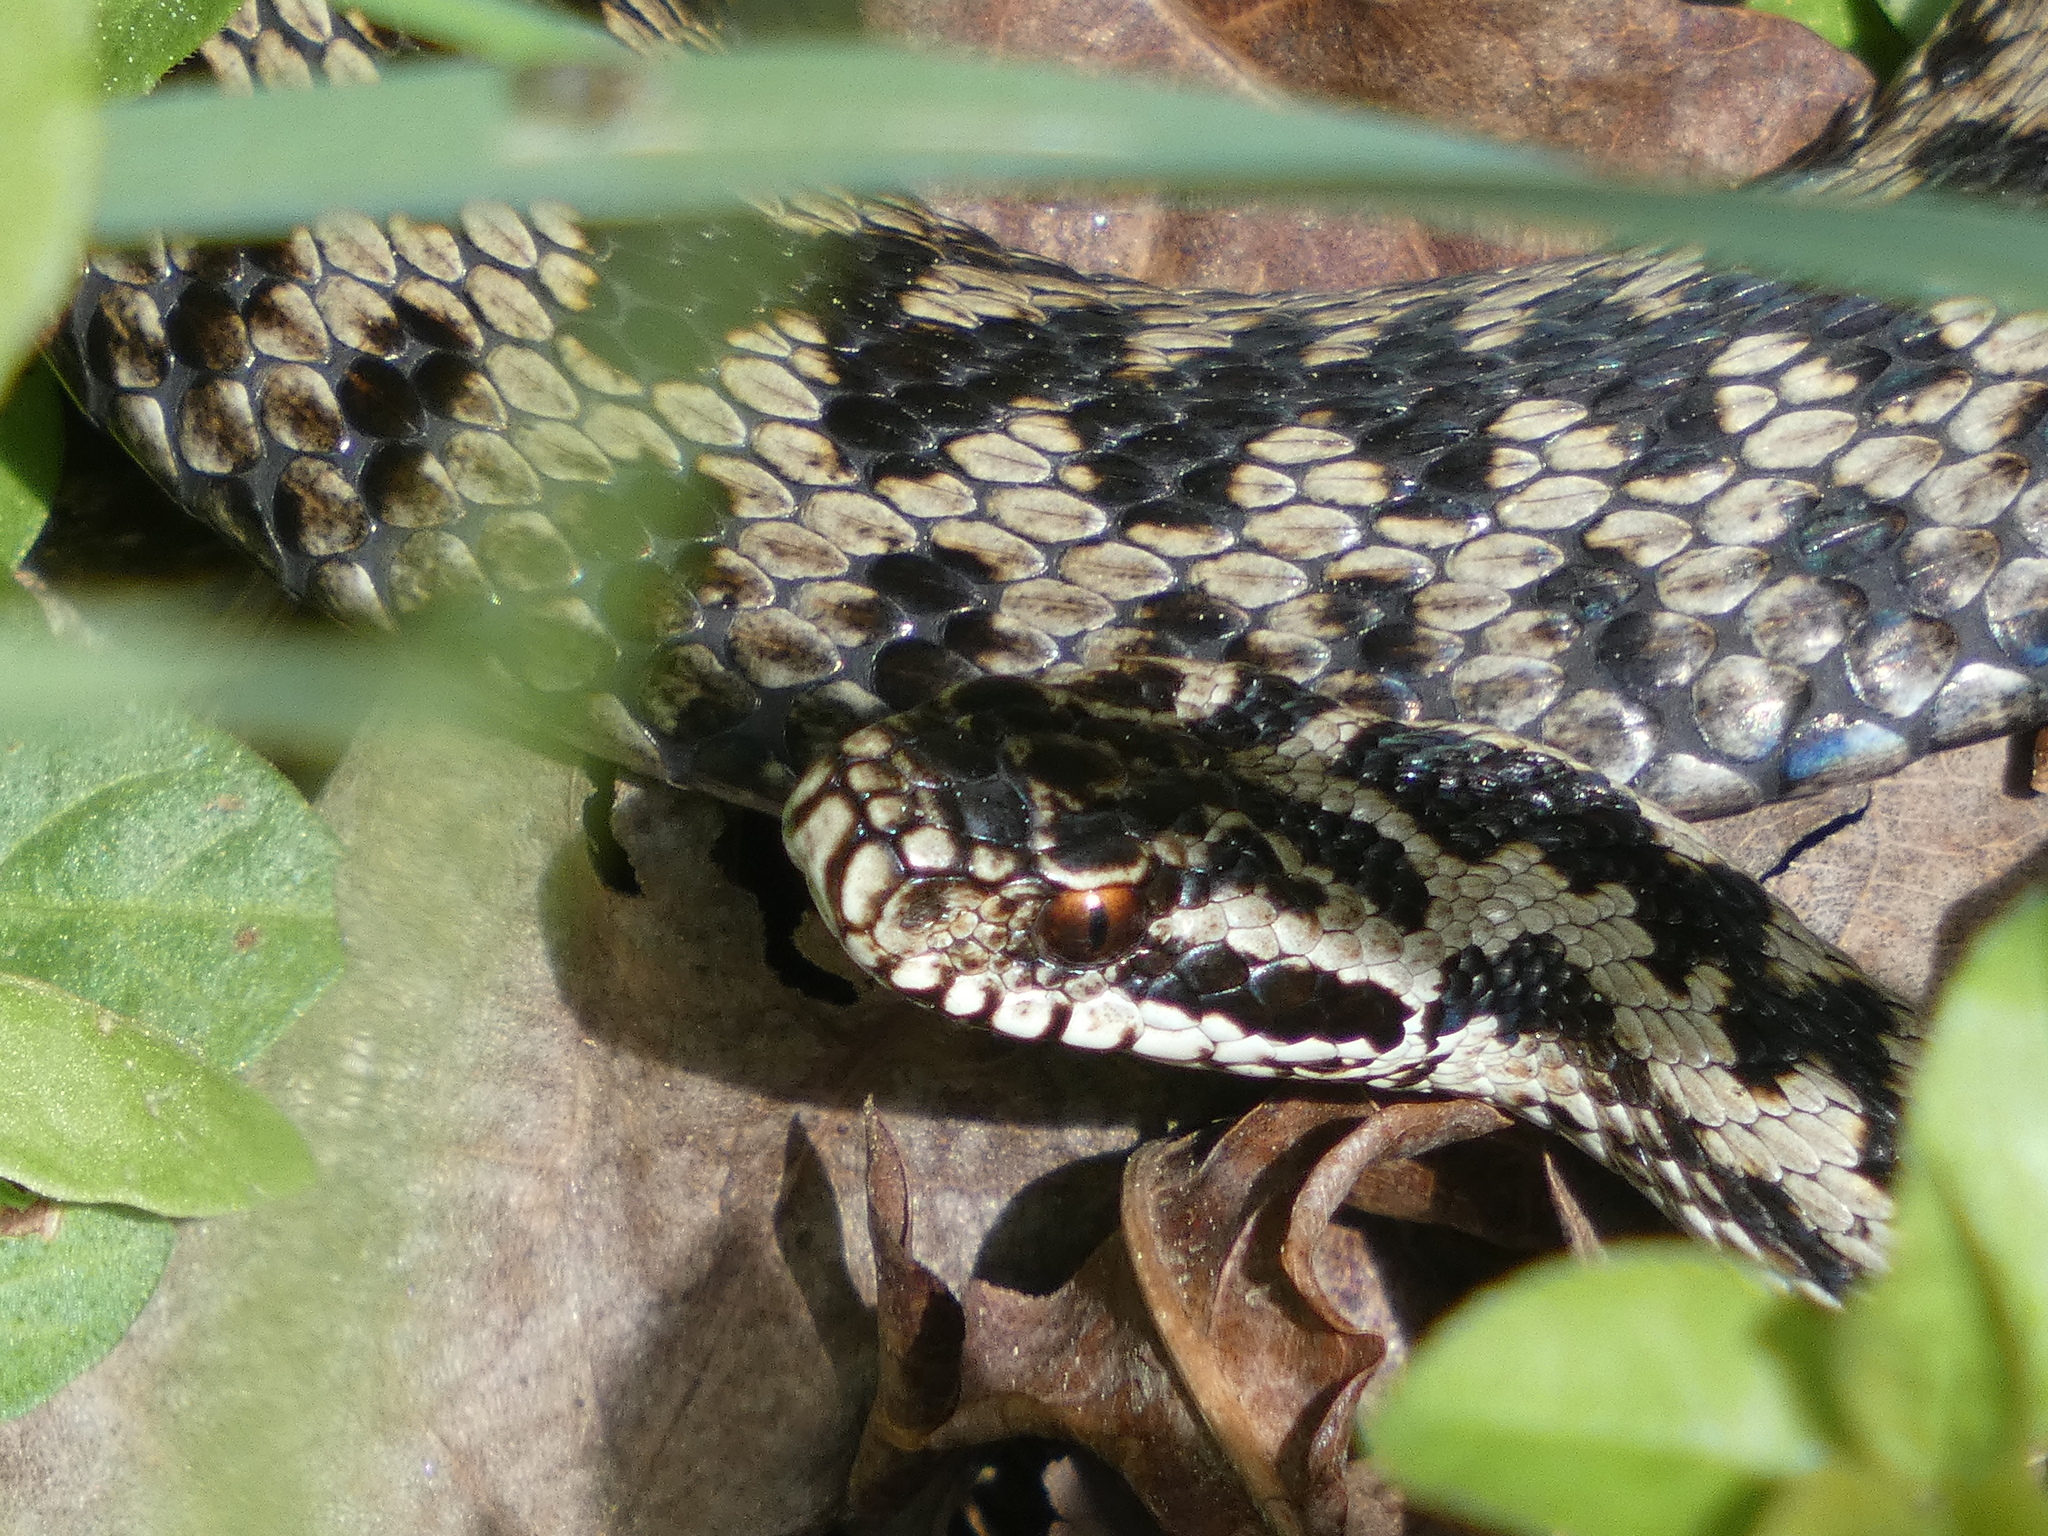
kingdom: Animalia
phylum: Chordata
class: Squamata
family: Viperidae
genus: Vipera
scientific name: Vipera berus
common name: Adder
